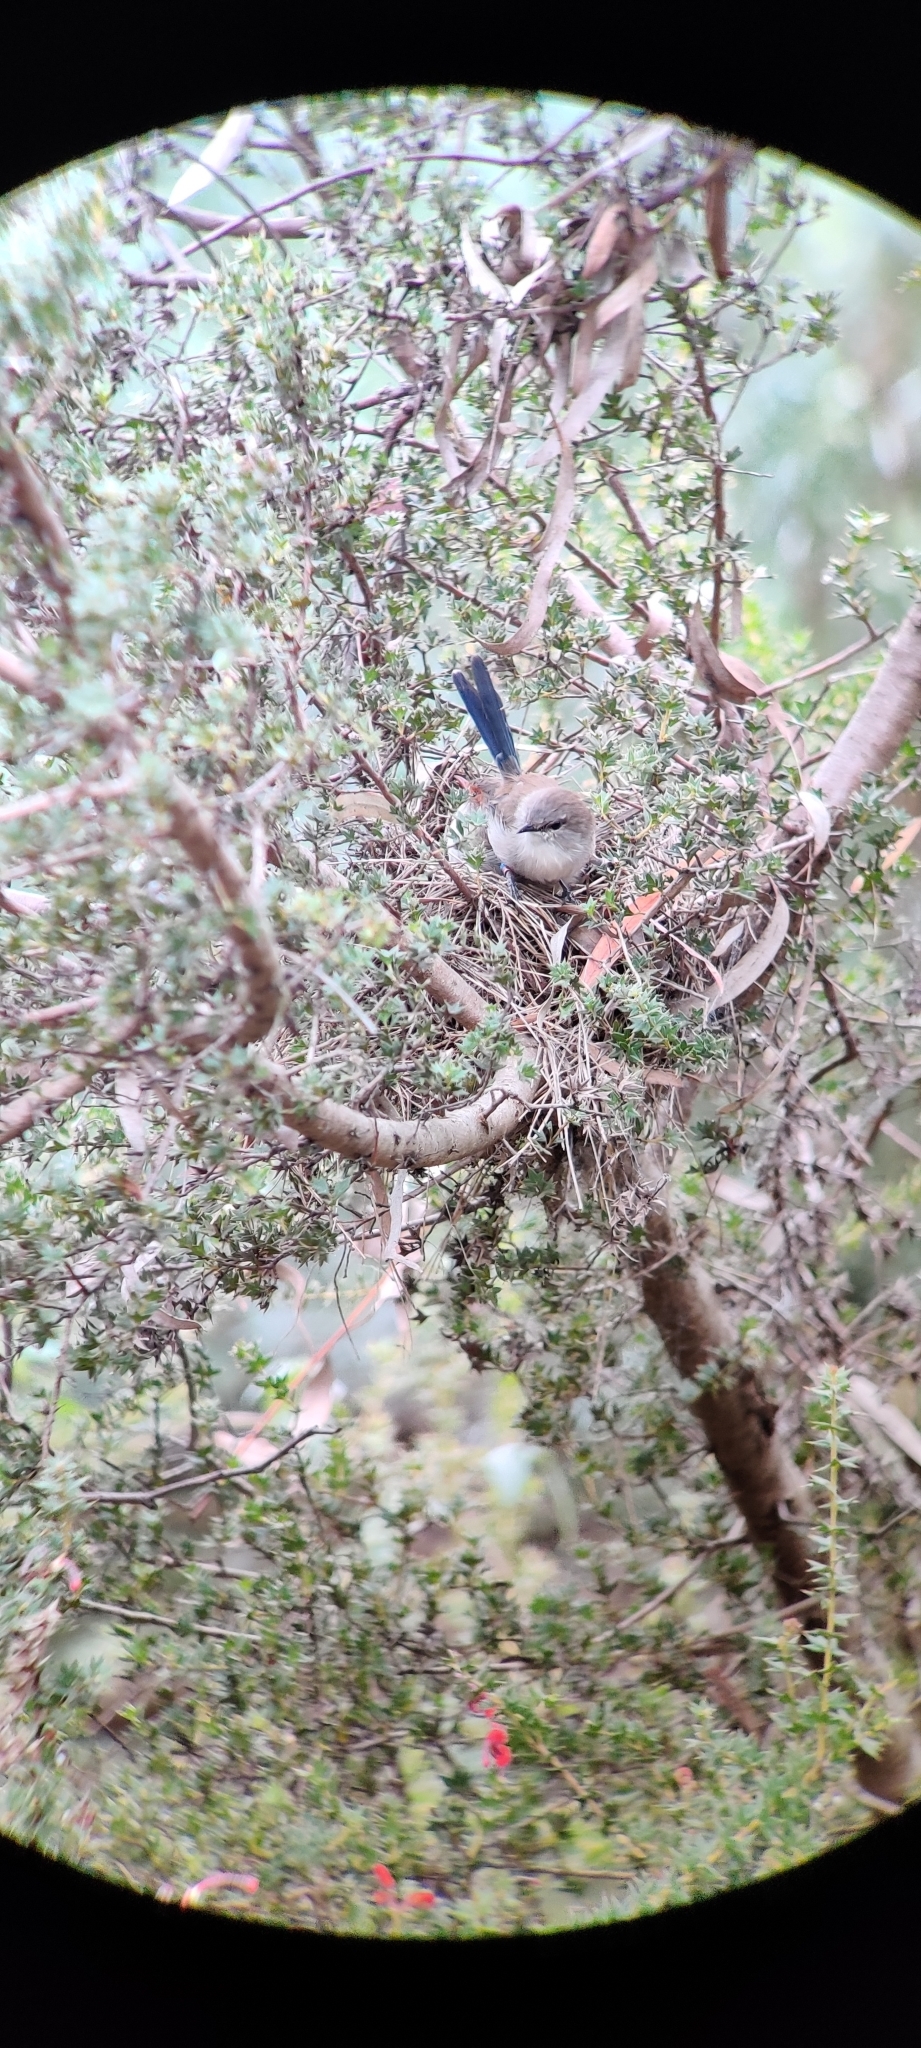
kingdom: Animalia
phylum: Chordata
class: Aves
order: Passeriformes
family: Maluridae
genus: Malurus
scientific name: Malurus cyaneus
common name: Superb fairywren
